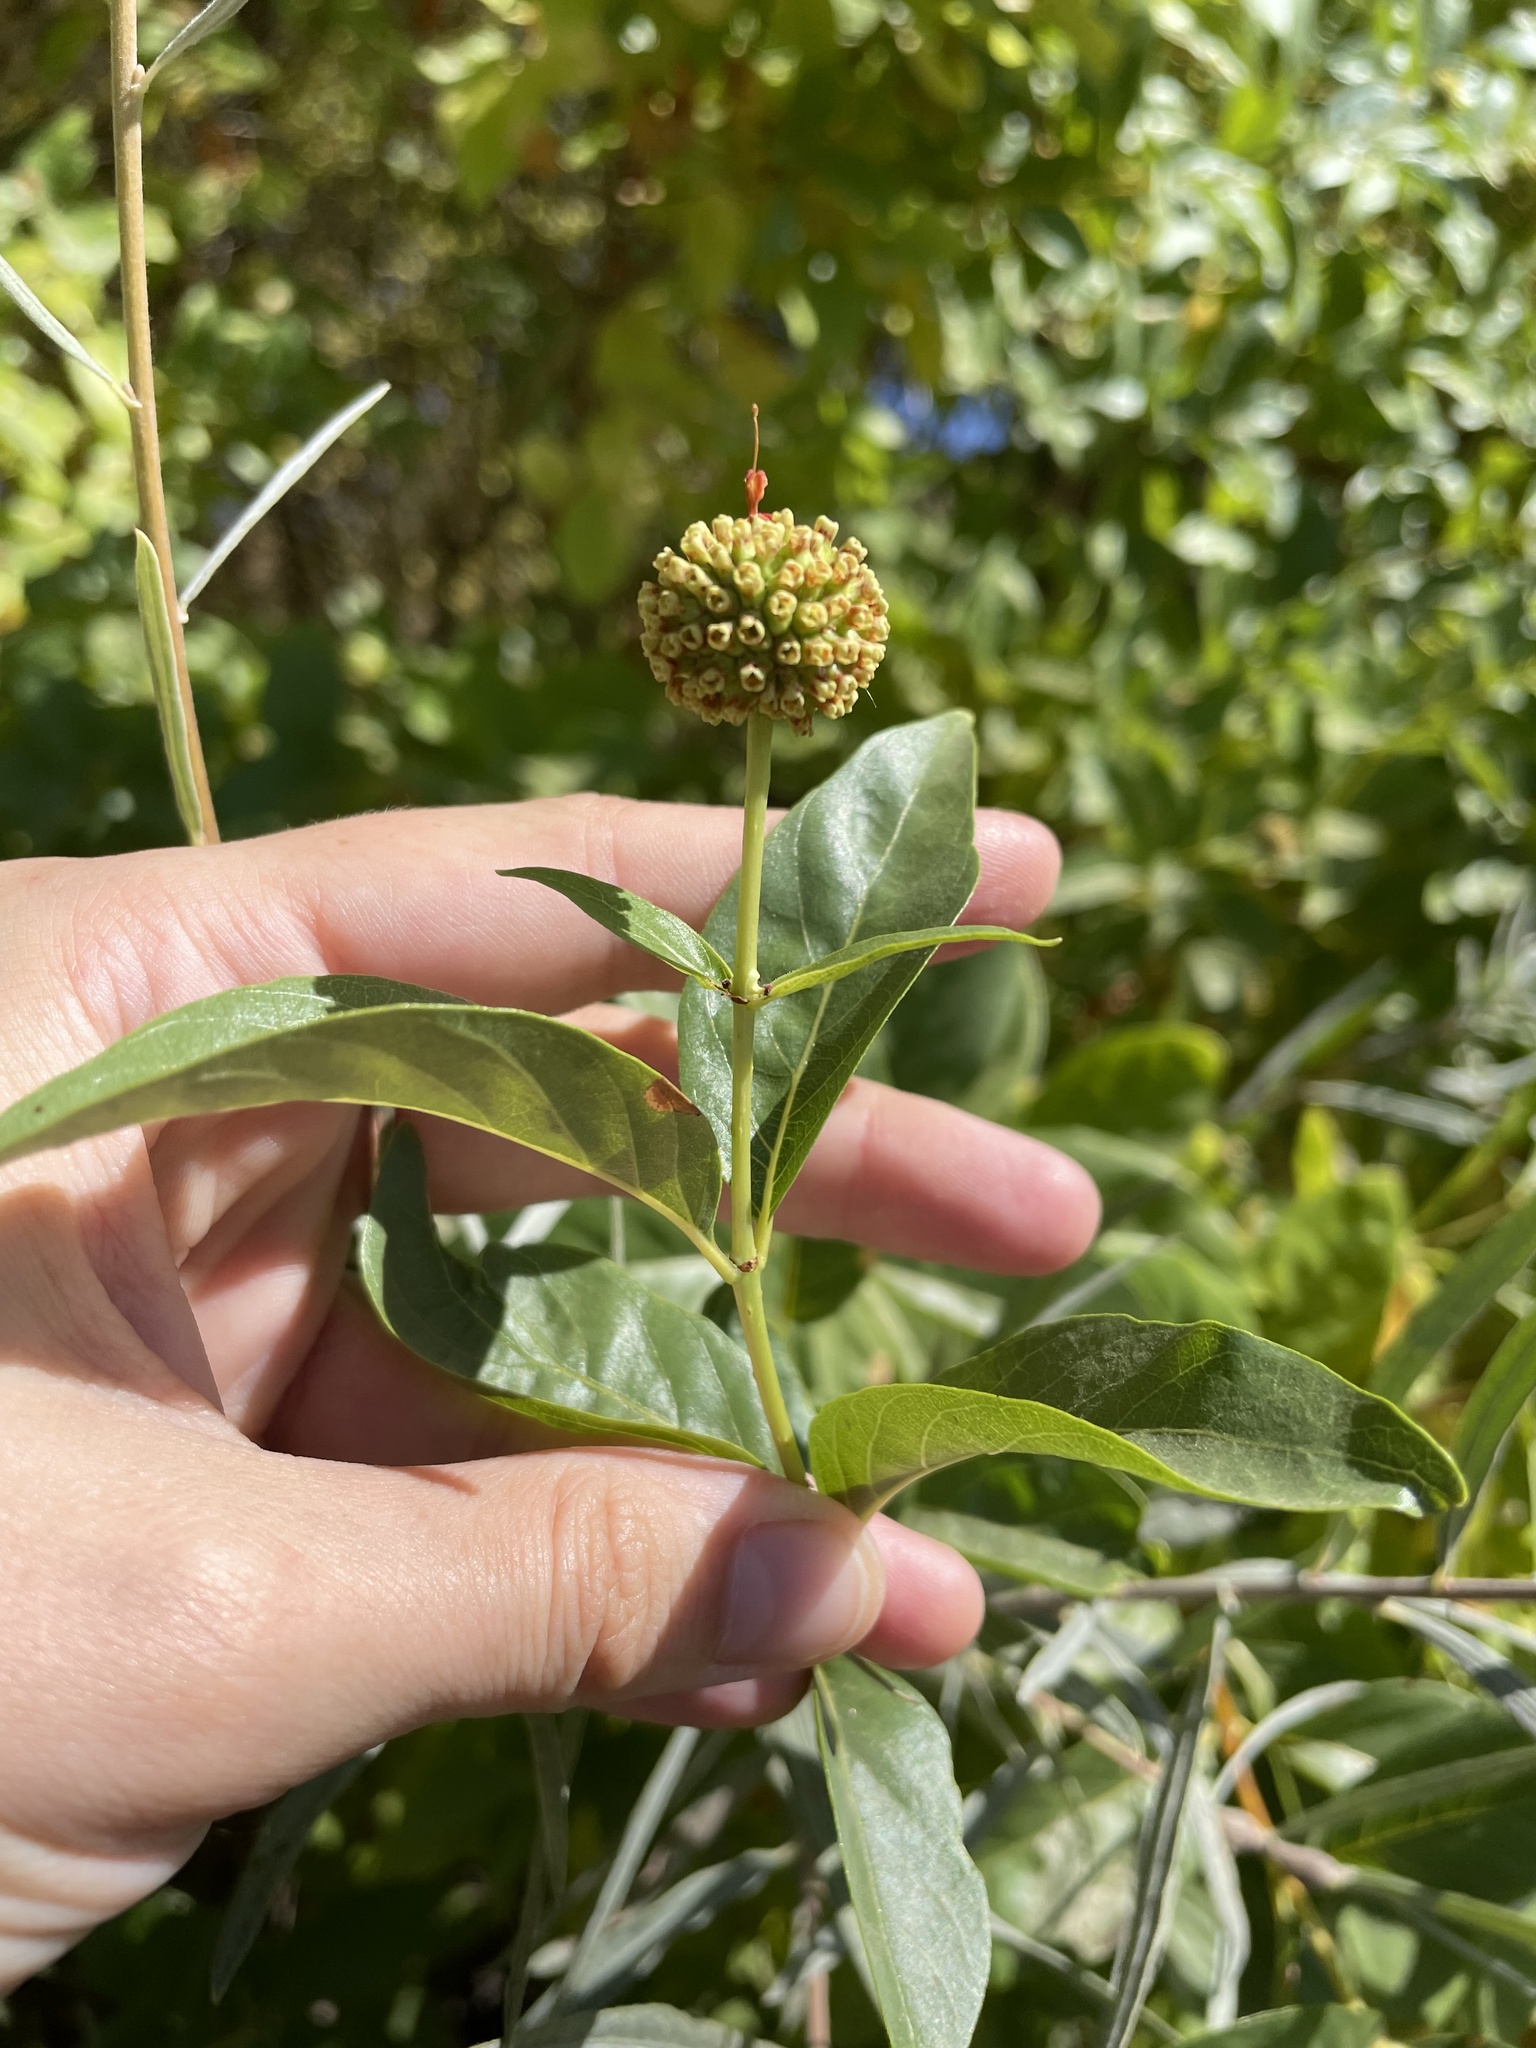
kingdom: Plantae
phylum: Tracheophyta
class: Magnoliopsida
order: Gentianales
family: Rubiaceae
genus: Cephalanthus
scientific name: Cephalanthus occidentalis
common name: Button-willow
